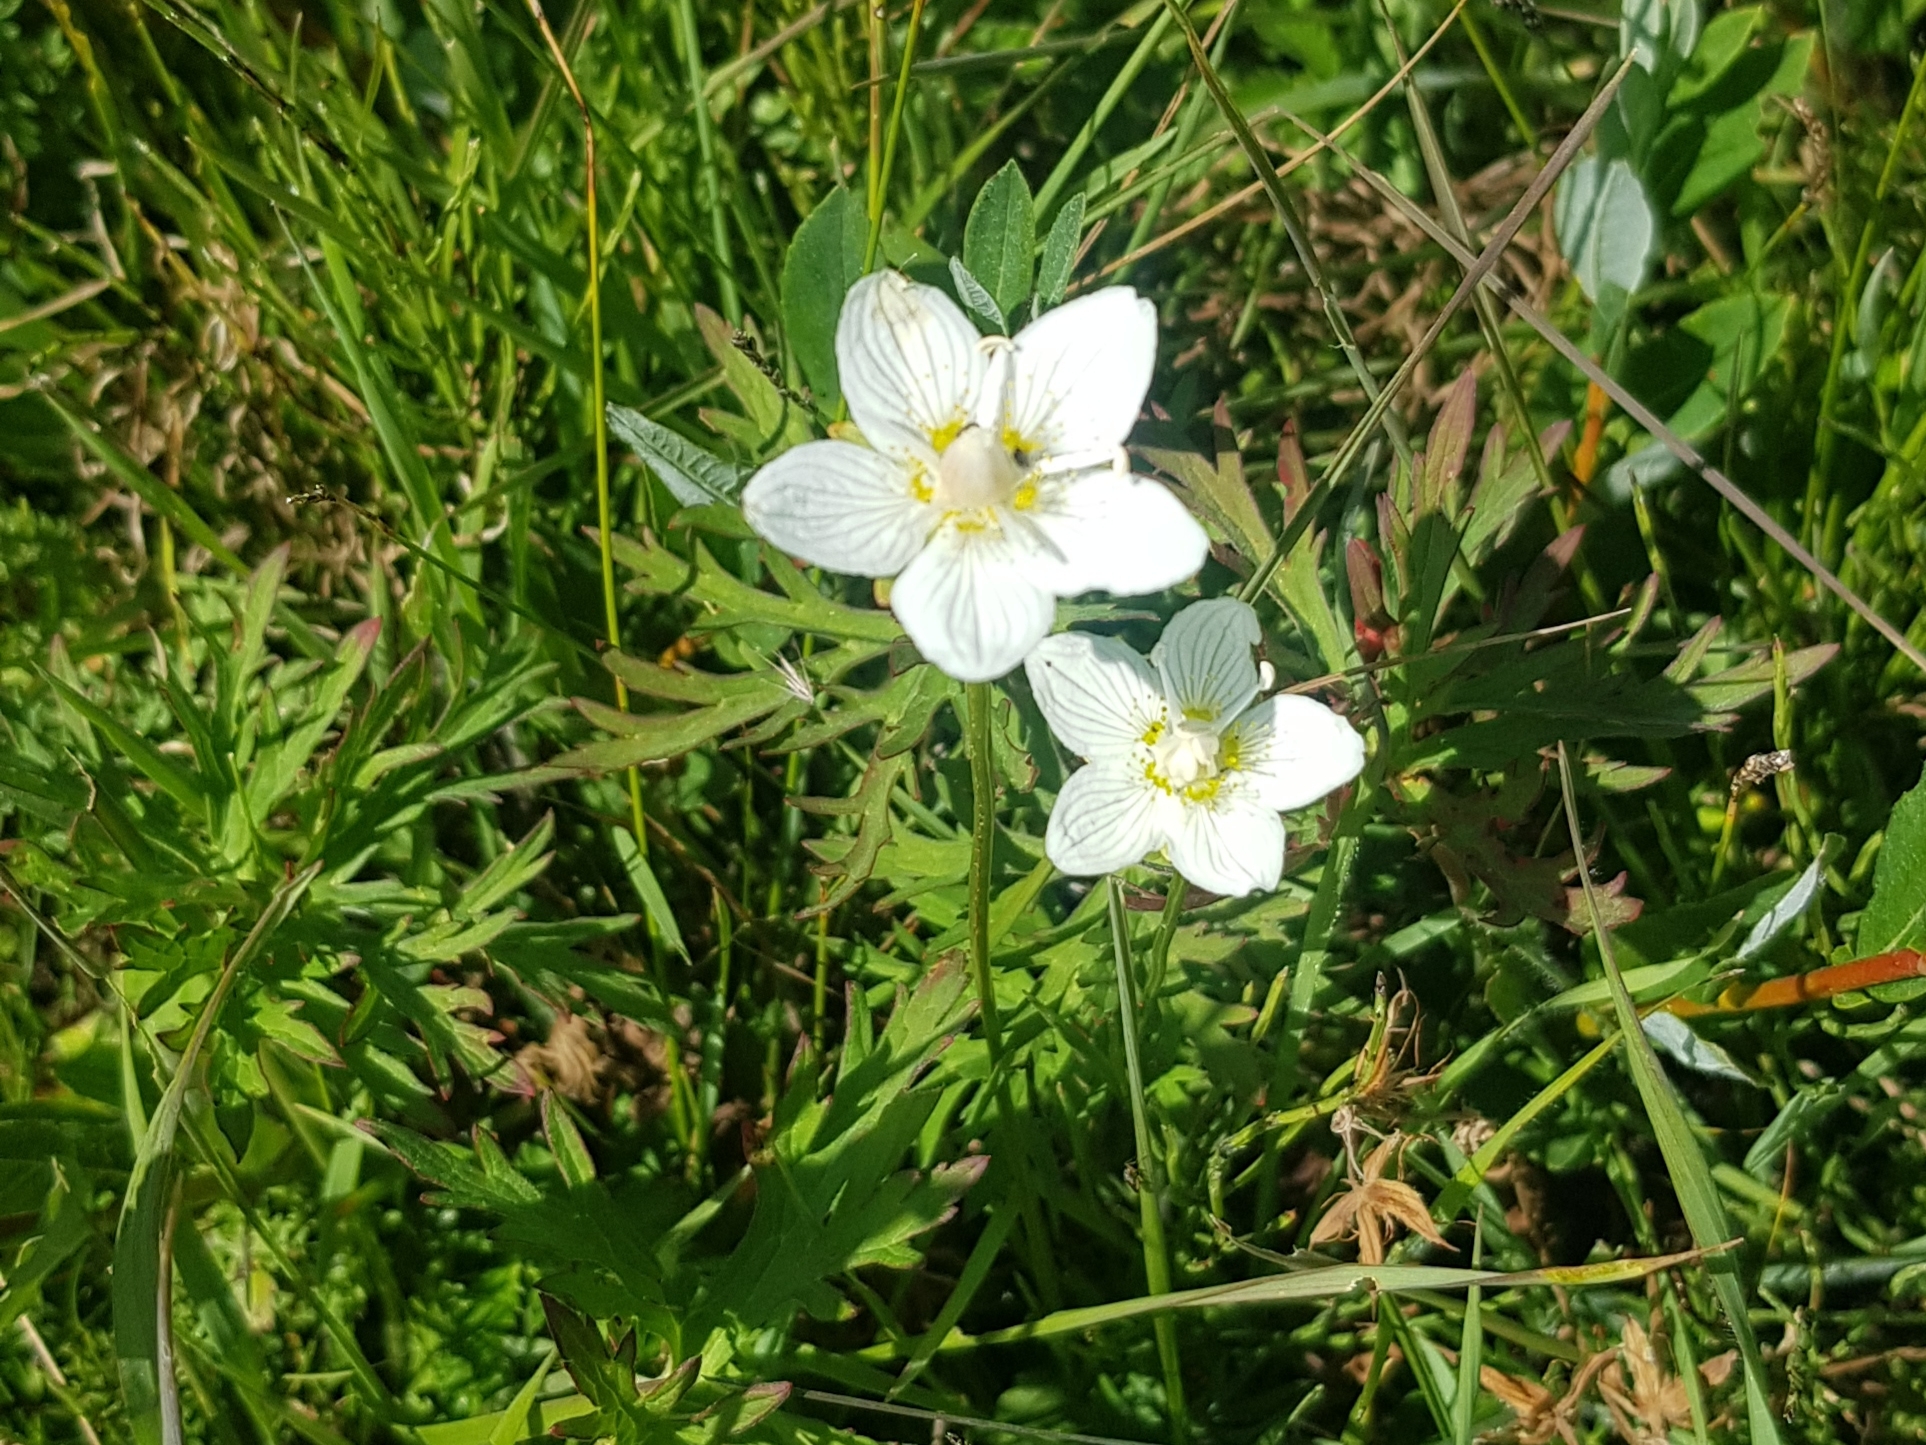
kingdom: Plantae
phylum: Tracheophyta
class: Magnoliopsida
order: Celastrales
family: Parnassiaceae
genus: Parnassia
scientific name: Parnassia palustris
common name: Grass-of-parnassus
